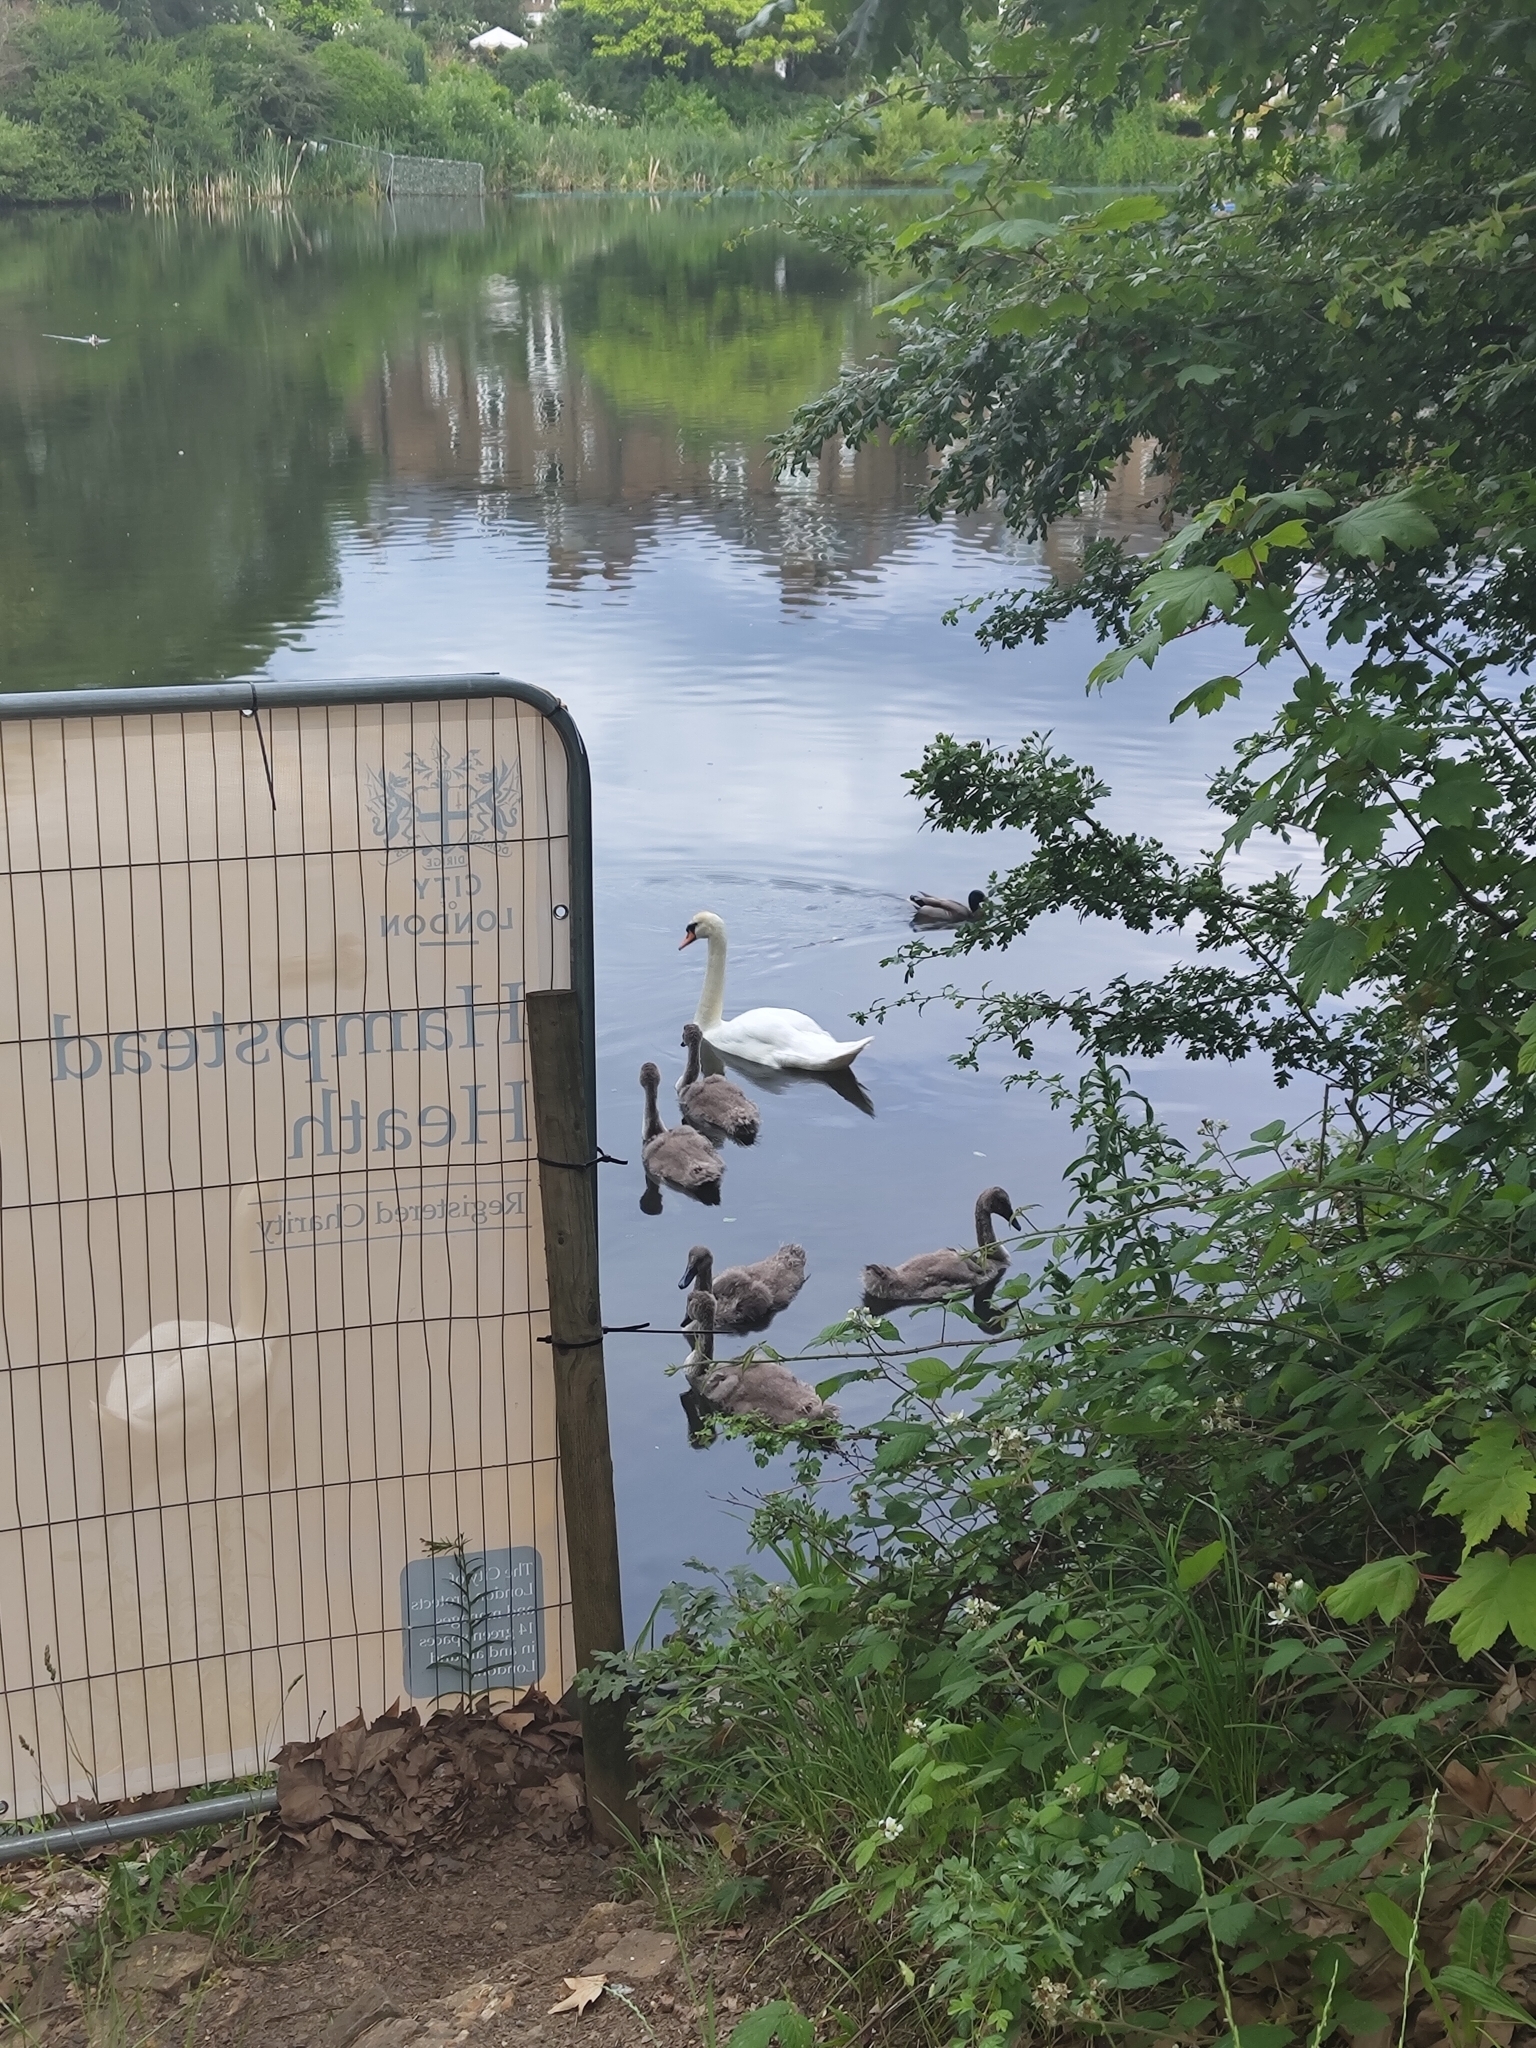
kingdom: Animalia
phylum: Chordata
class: Aves
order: Anseriformes
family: Anatidae
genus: Cygnus
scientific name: Cygnus olor
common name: Mute swan
